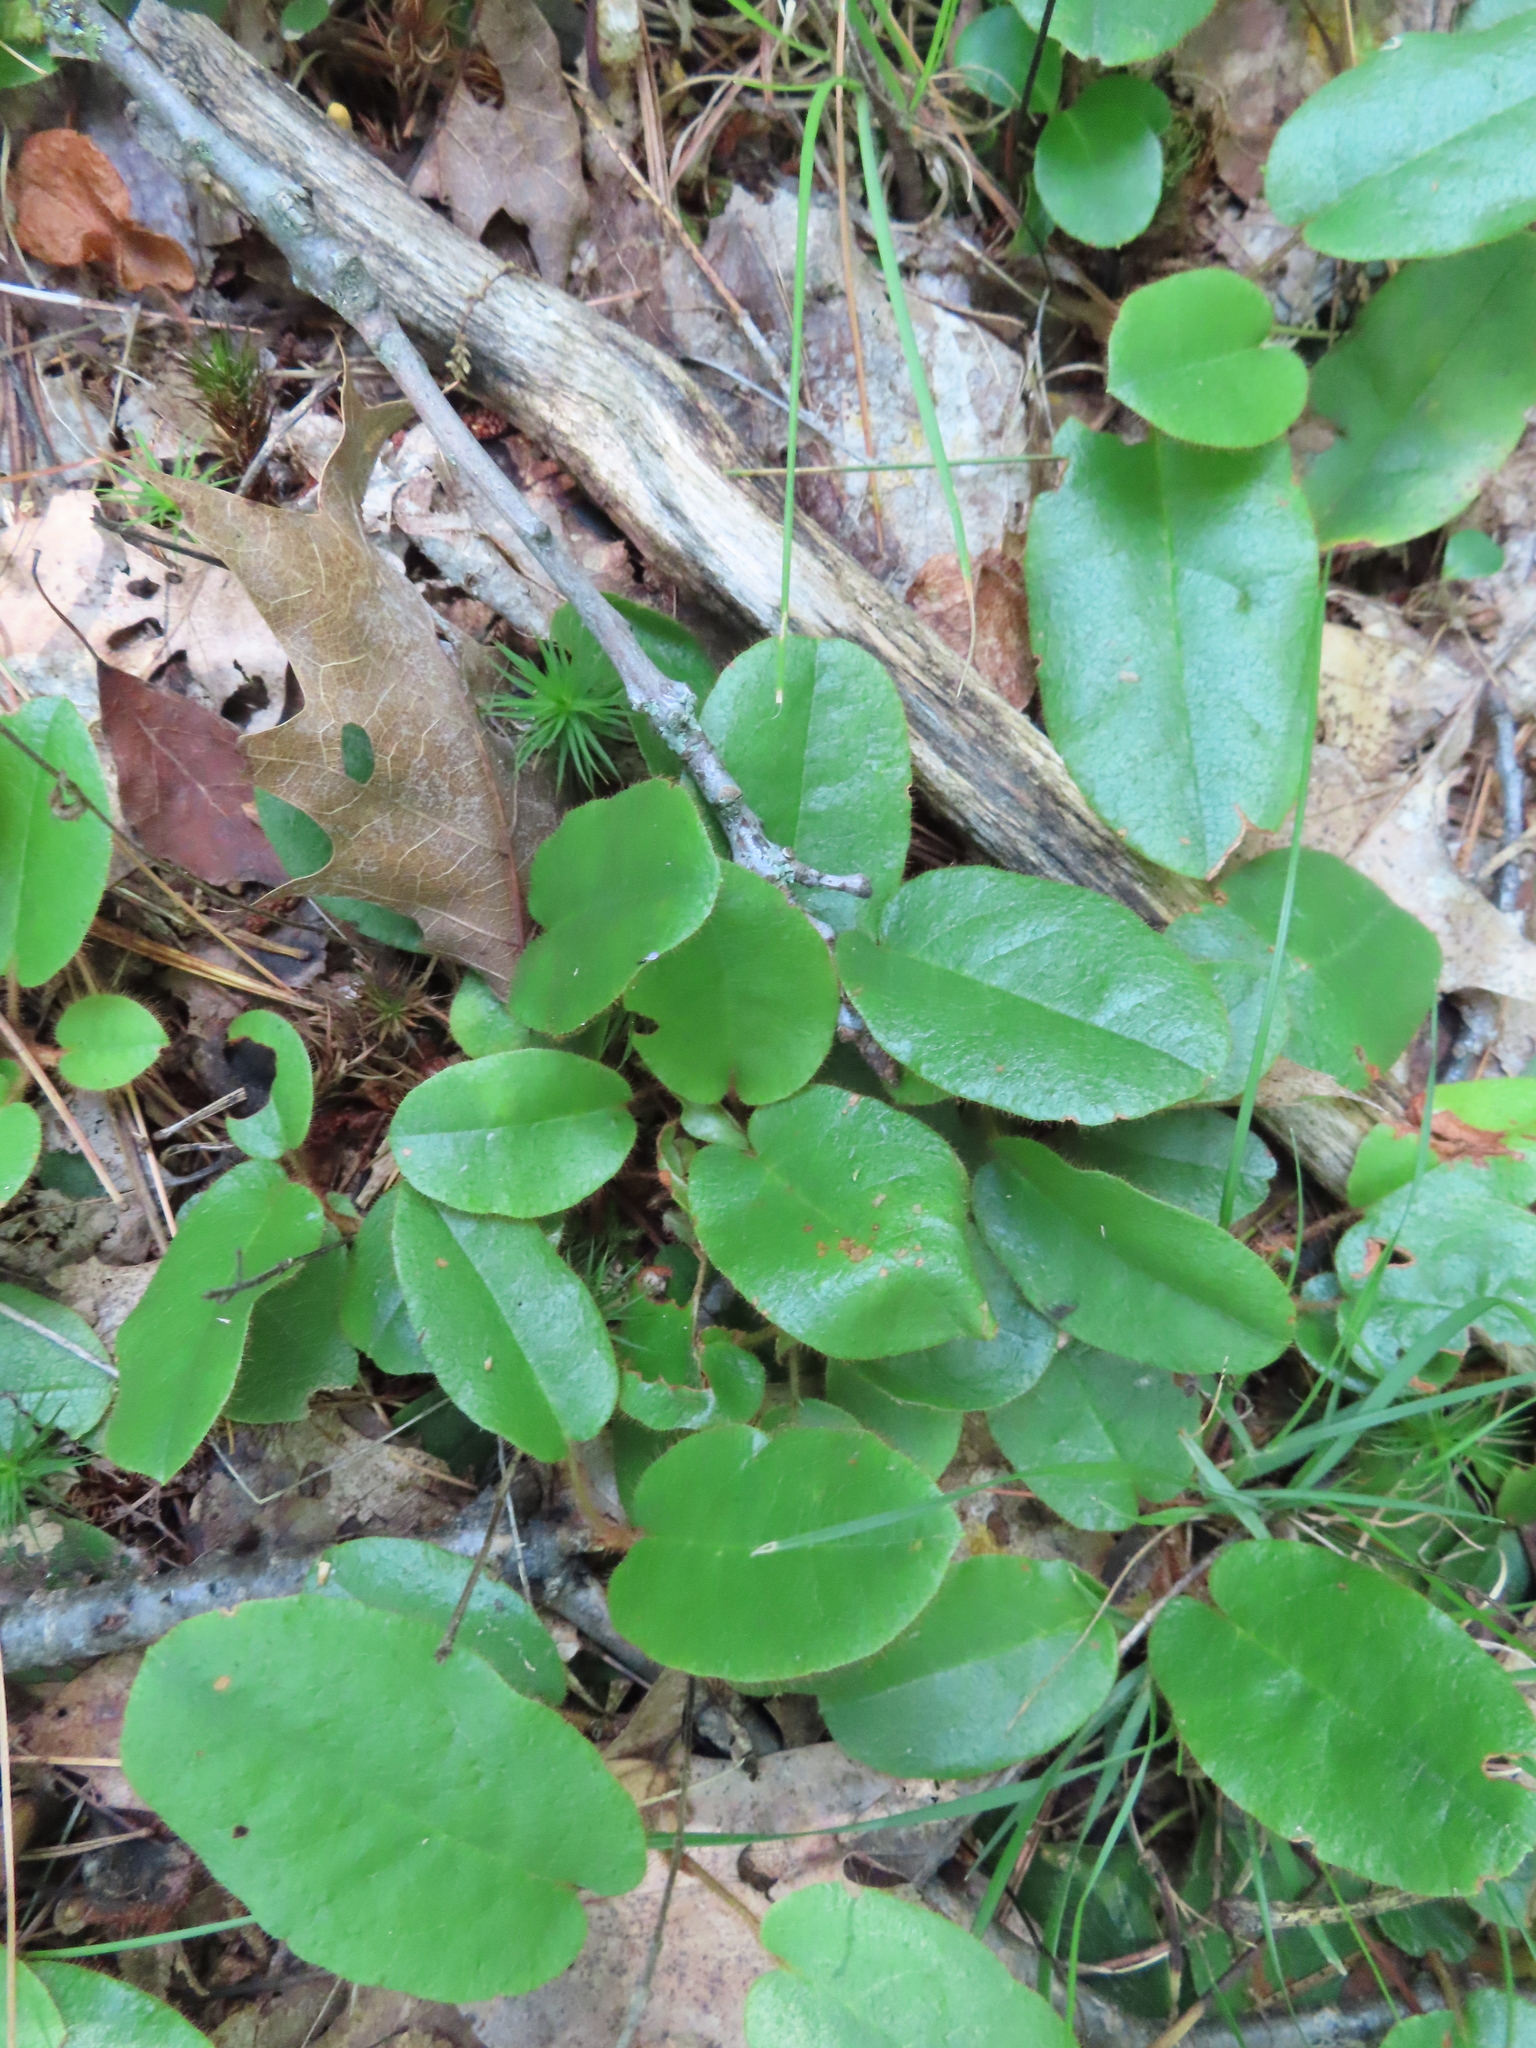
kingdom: Plantae
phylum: Tracheophyta
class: Magnoliopsida
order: Ericales
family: Ericaceae
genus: Epigaea
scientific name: Epigaea repens
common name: Gravelroot
